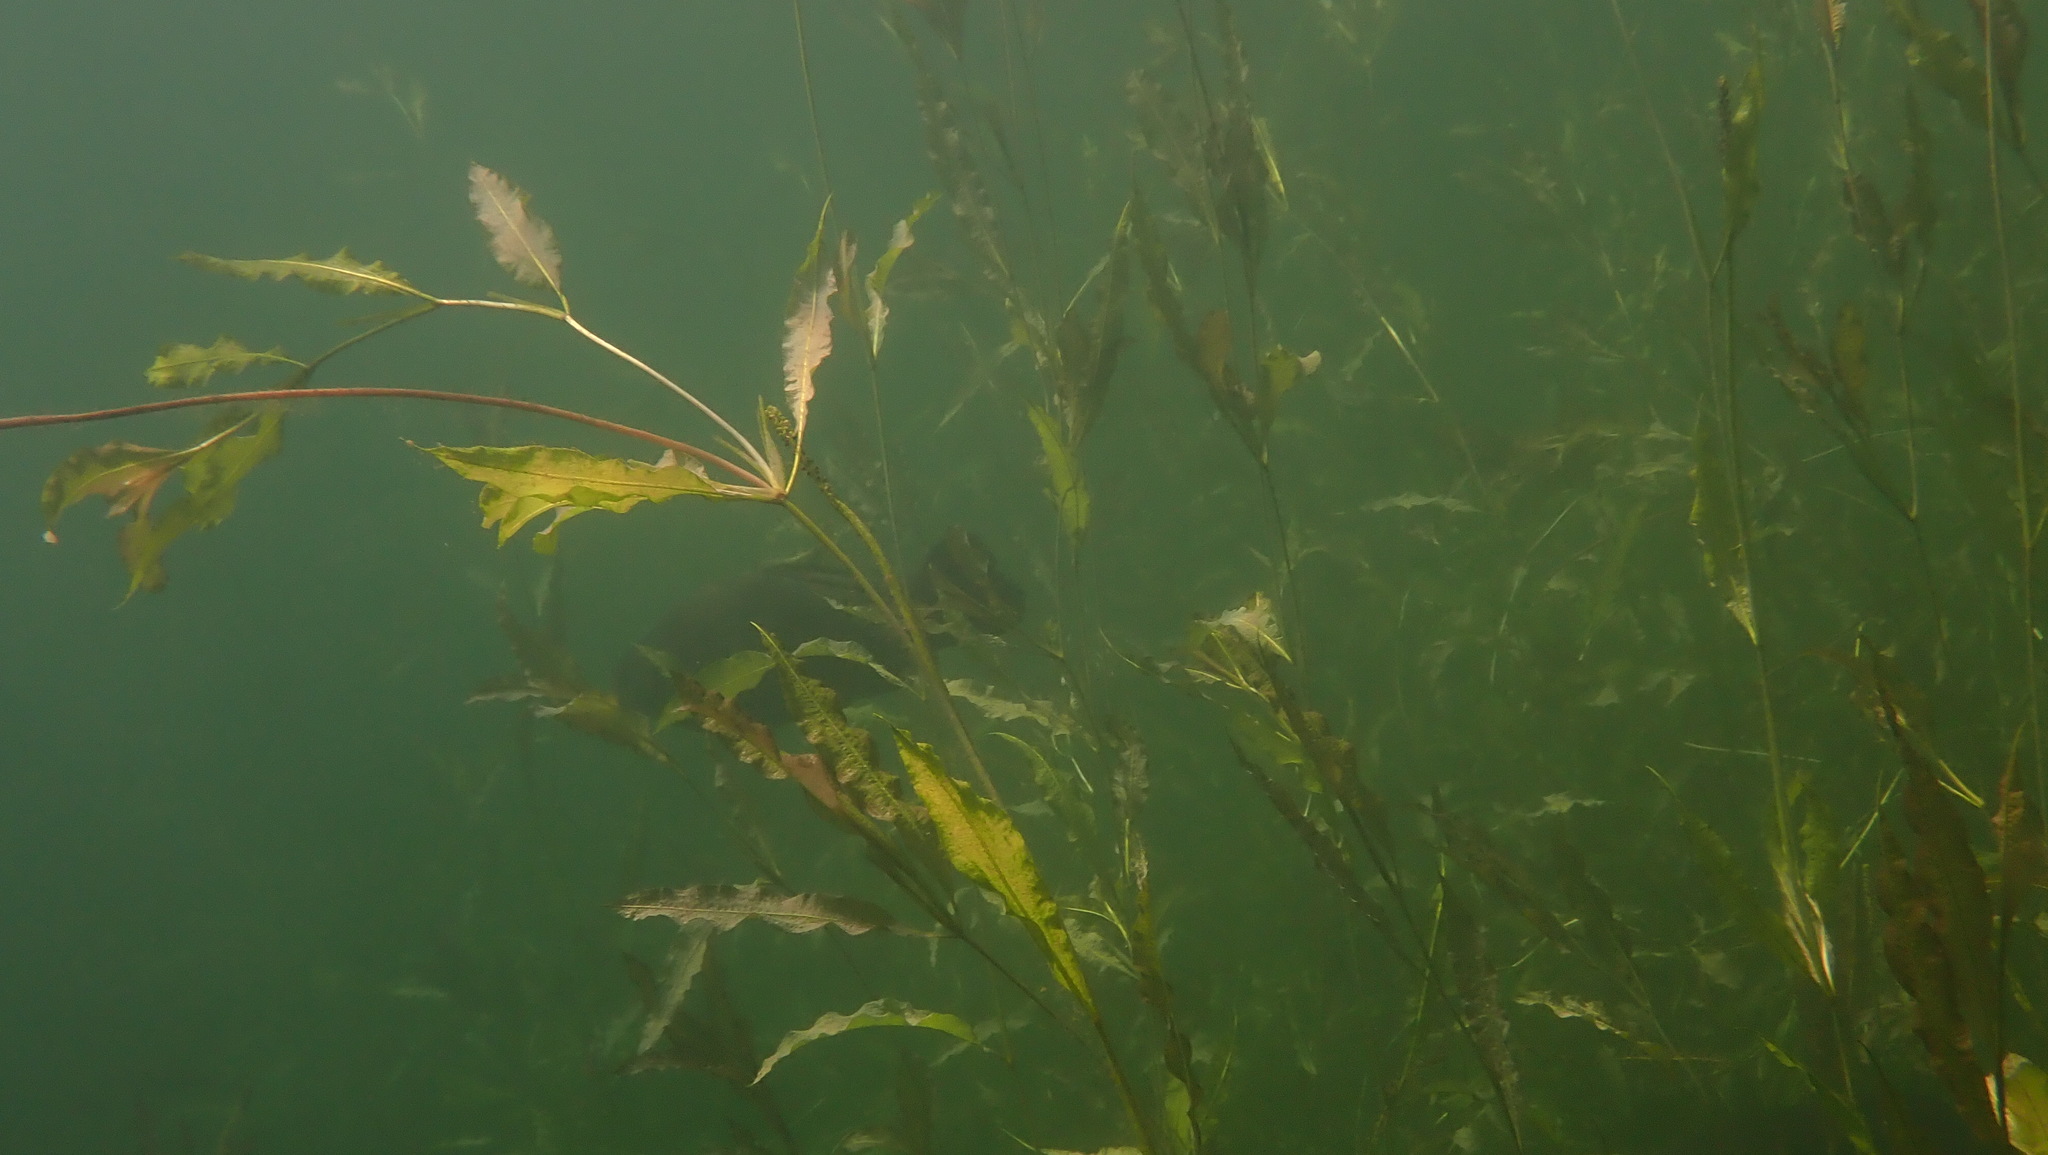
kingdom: Animalia
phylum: Chordata
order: Cypriniformes
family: Cyprinidae
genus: Tinca
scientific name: Tinca tinca
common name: Tench
